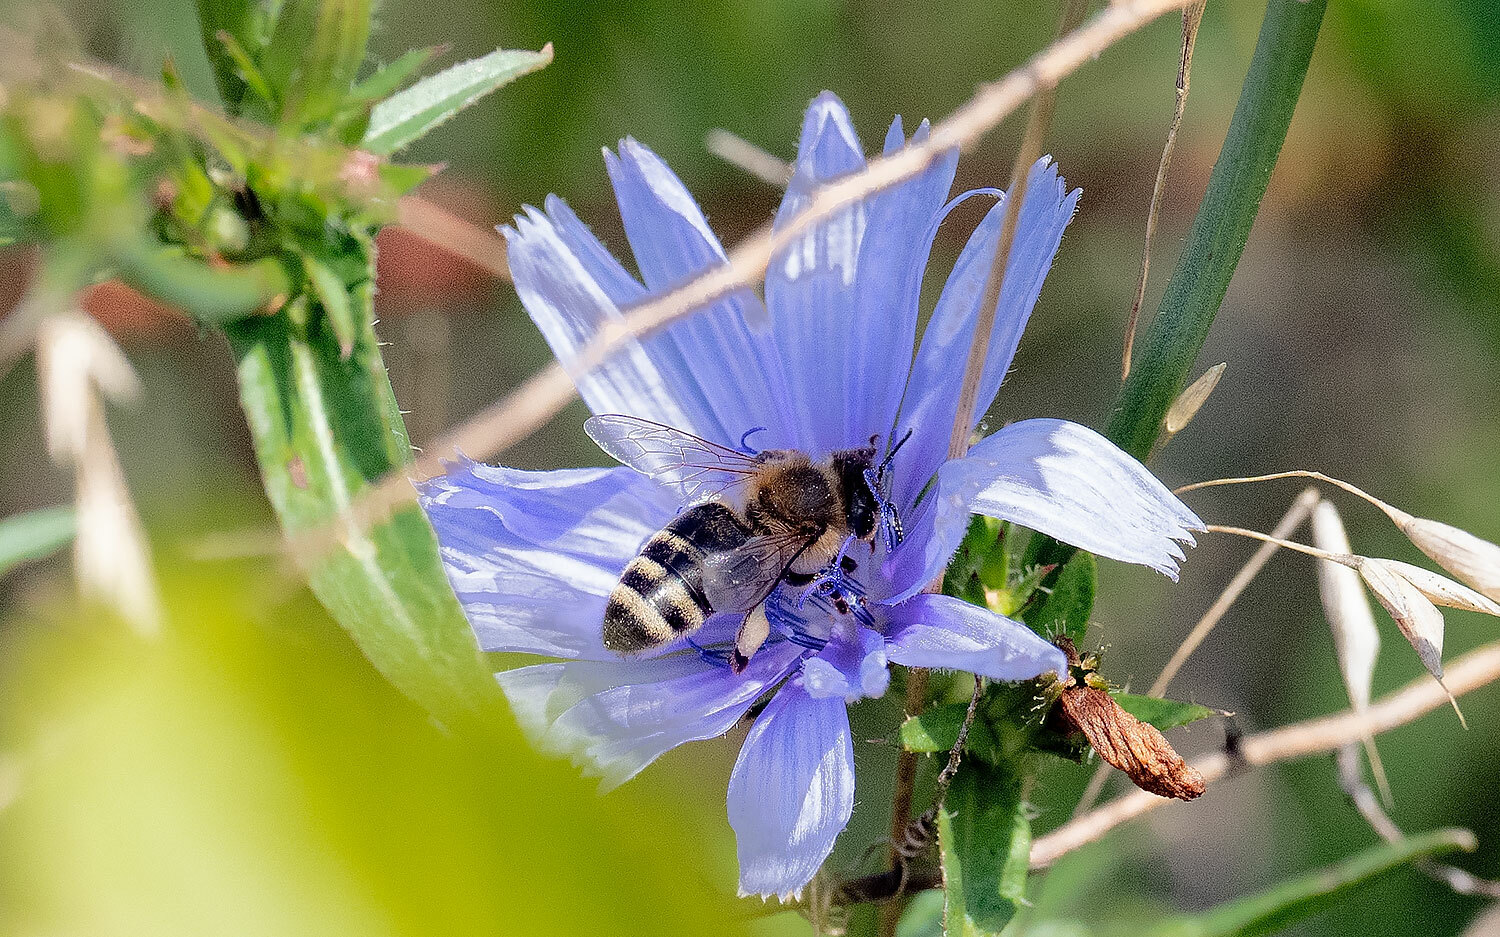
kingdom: Animalia
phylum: Arthropoda
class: Insecta
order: Hymenoptera
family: Apidae
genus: Apis
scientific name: Apis mellifera
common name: Honey bee
